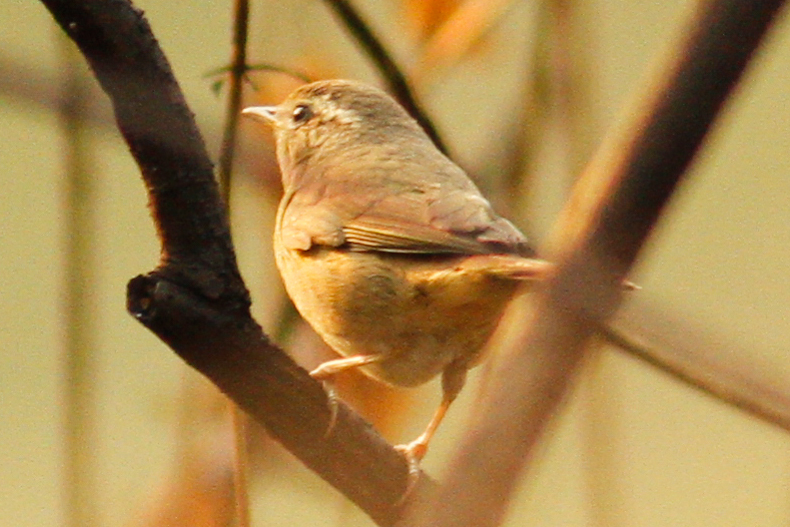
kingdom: Animalia
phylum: Chordata
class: Aves
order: Passeriformes
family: Cettiidae
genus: Horornis
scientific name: Horornis flavolivaceus
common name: Aberrant bush warbler
